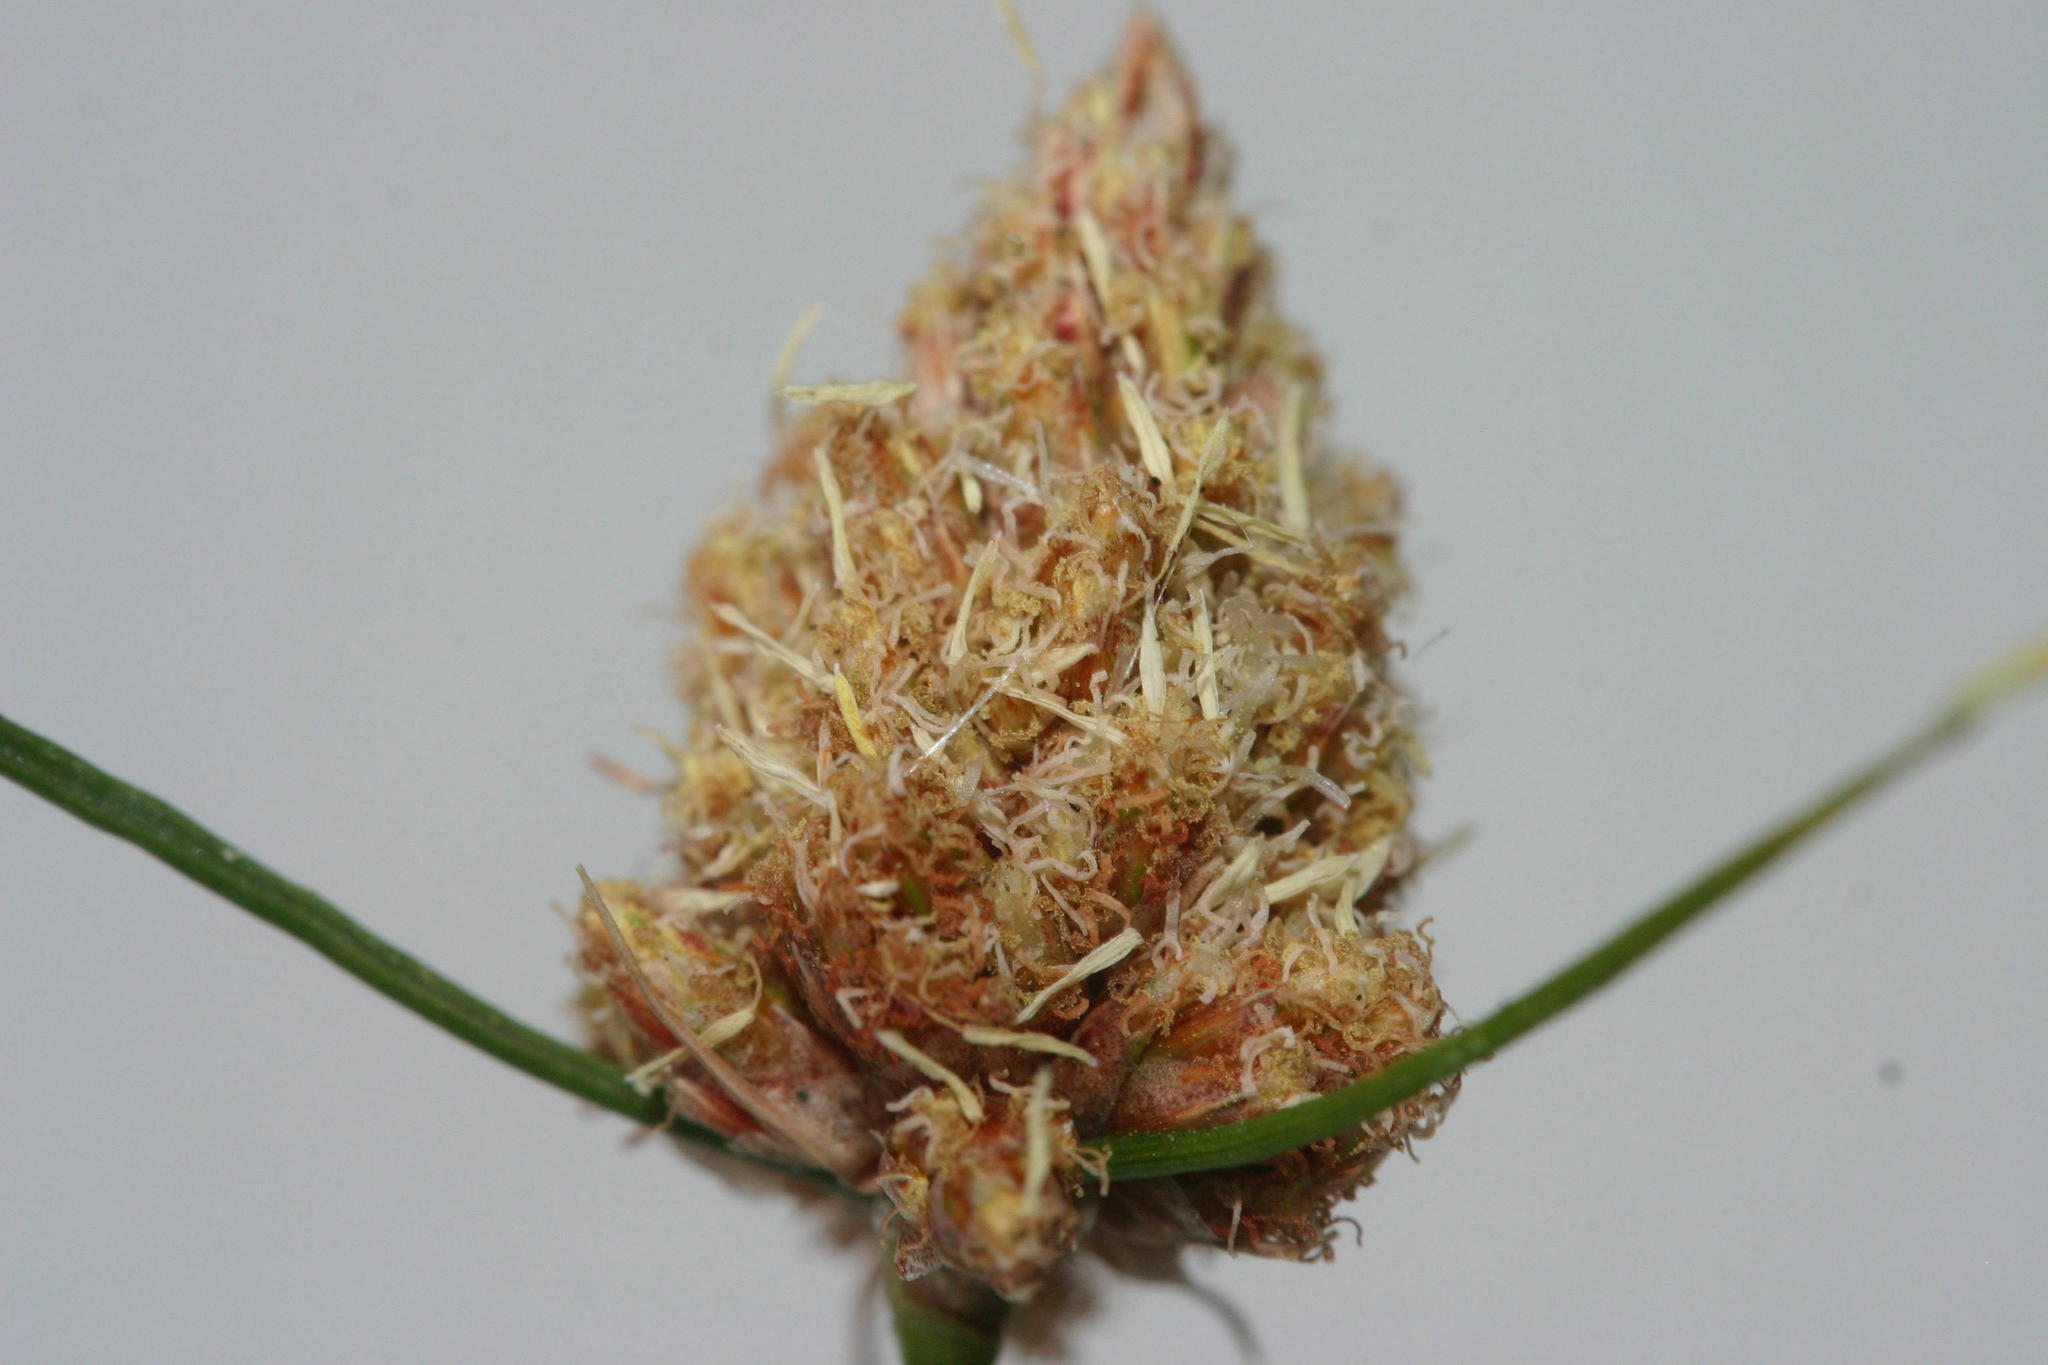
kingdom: Plantae
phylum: Tracheophyta
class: Liliopsida
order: Poales
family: Cyperaceae
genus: Ficinia
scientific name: Ficinia brevifolia
